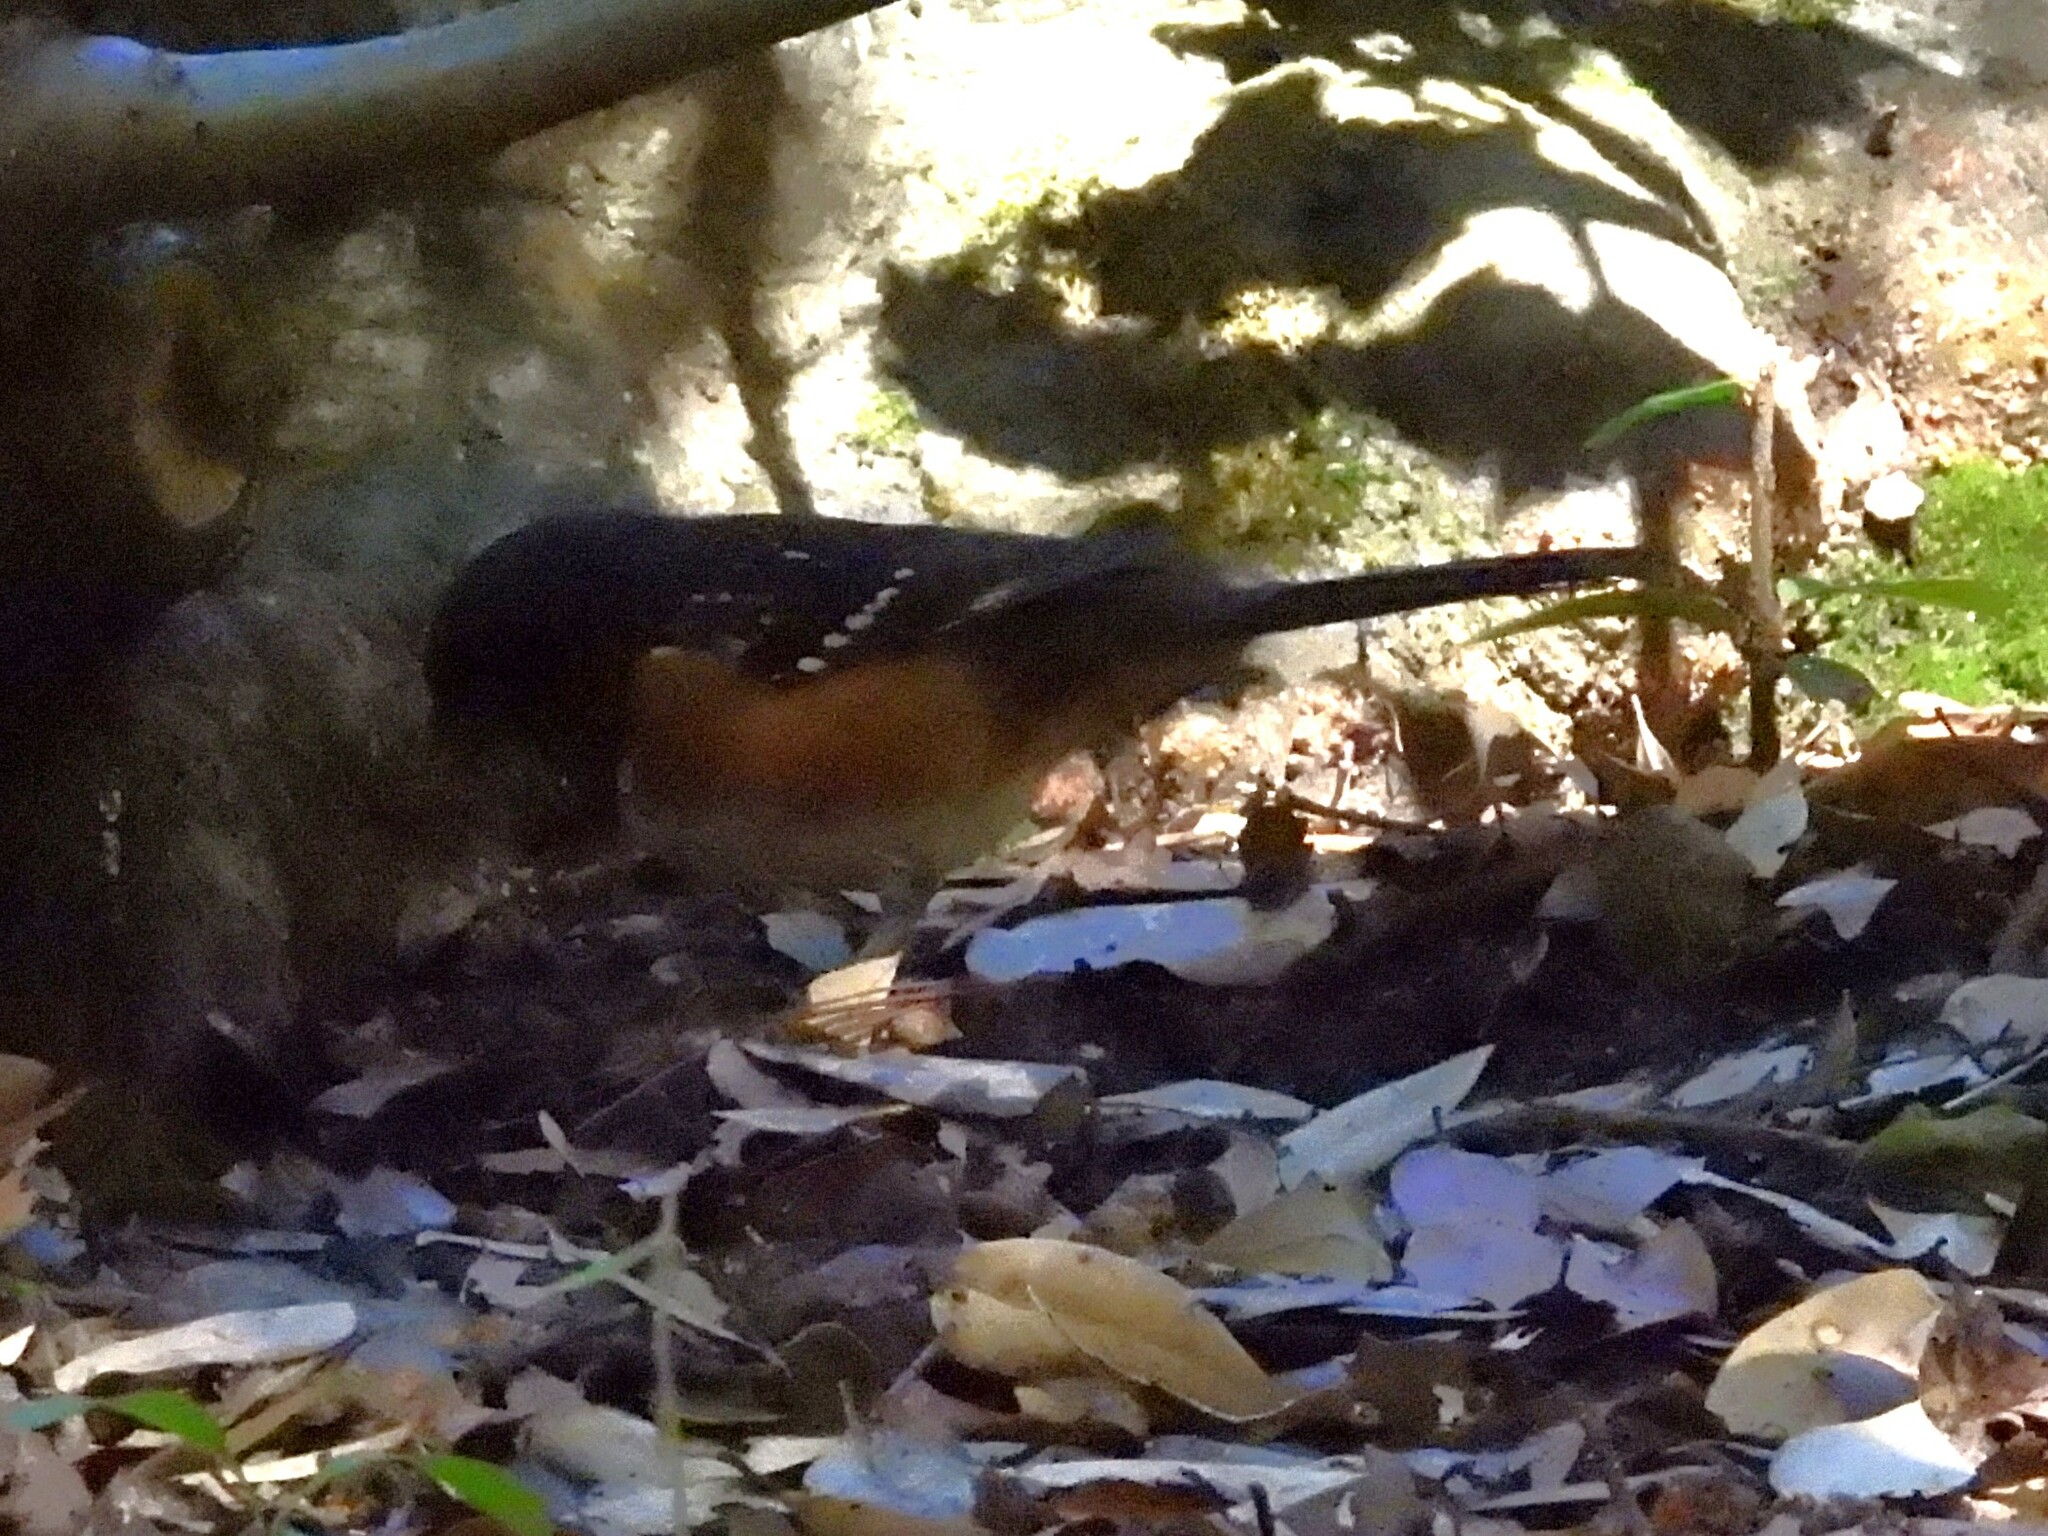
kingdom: Animalia
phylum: Chordata
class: Aves
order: Passeriformes
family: Passerellidae
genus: Pipilo
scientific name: Pipilo maculatus
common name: Spotted towhee
